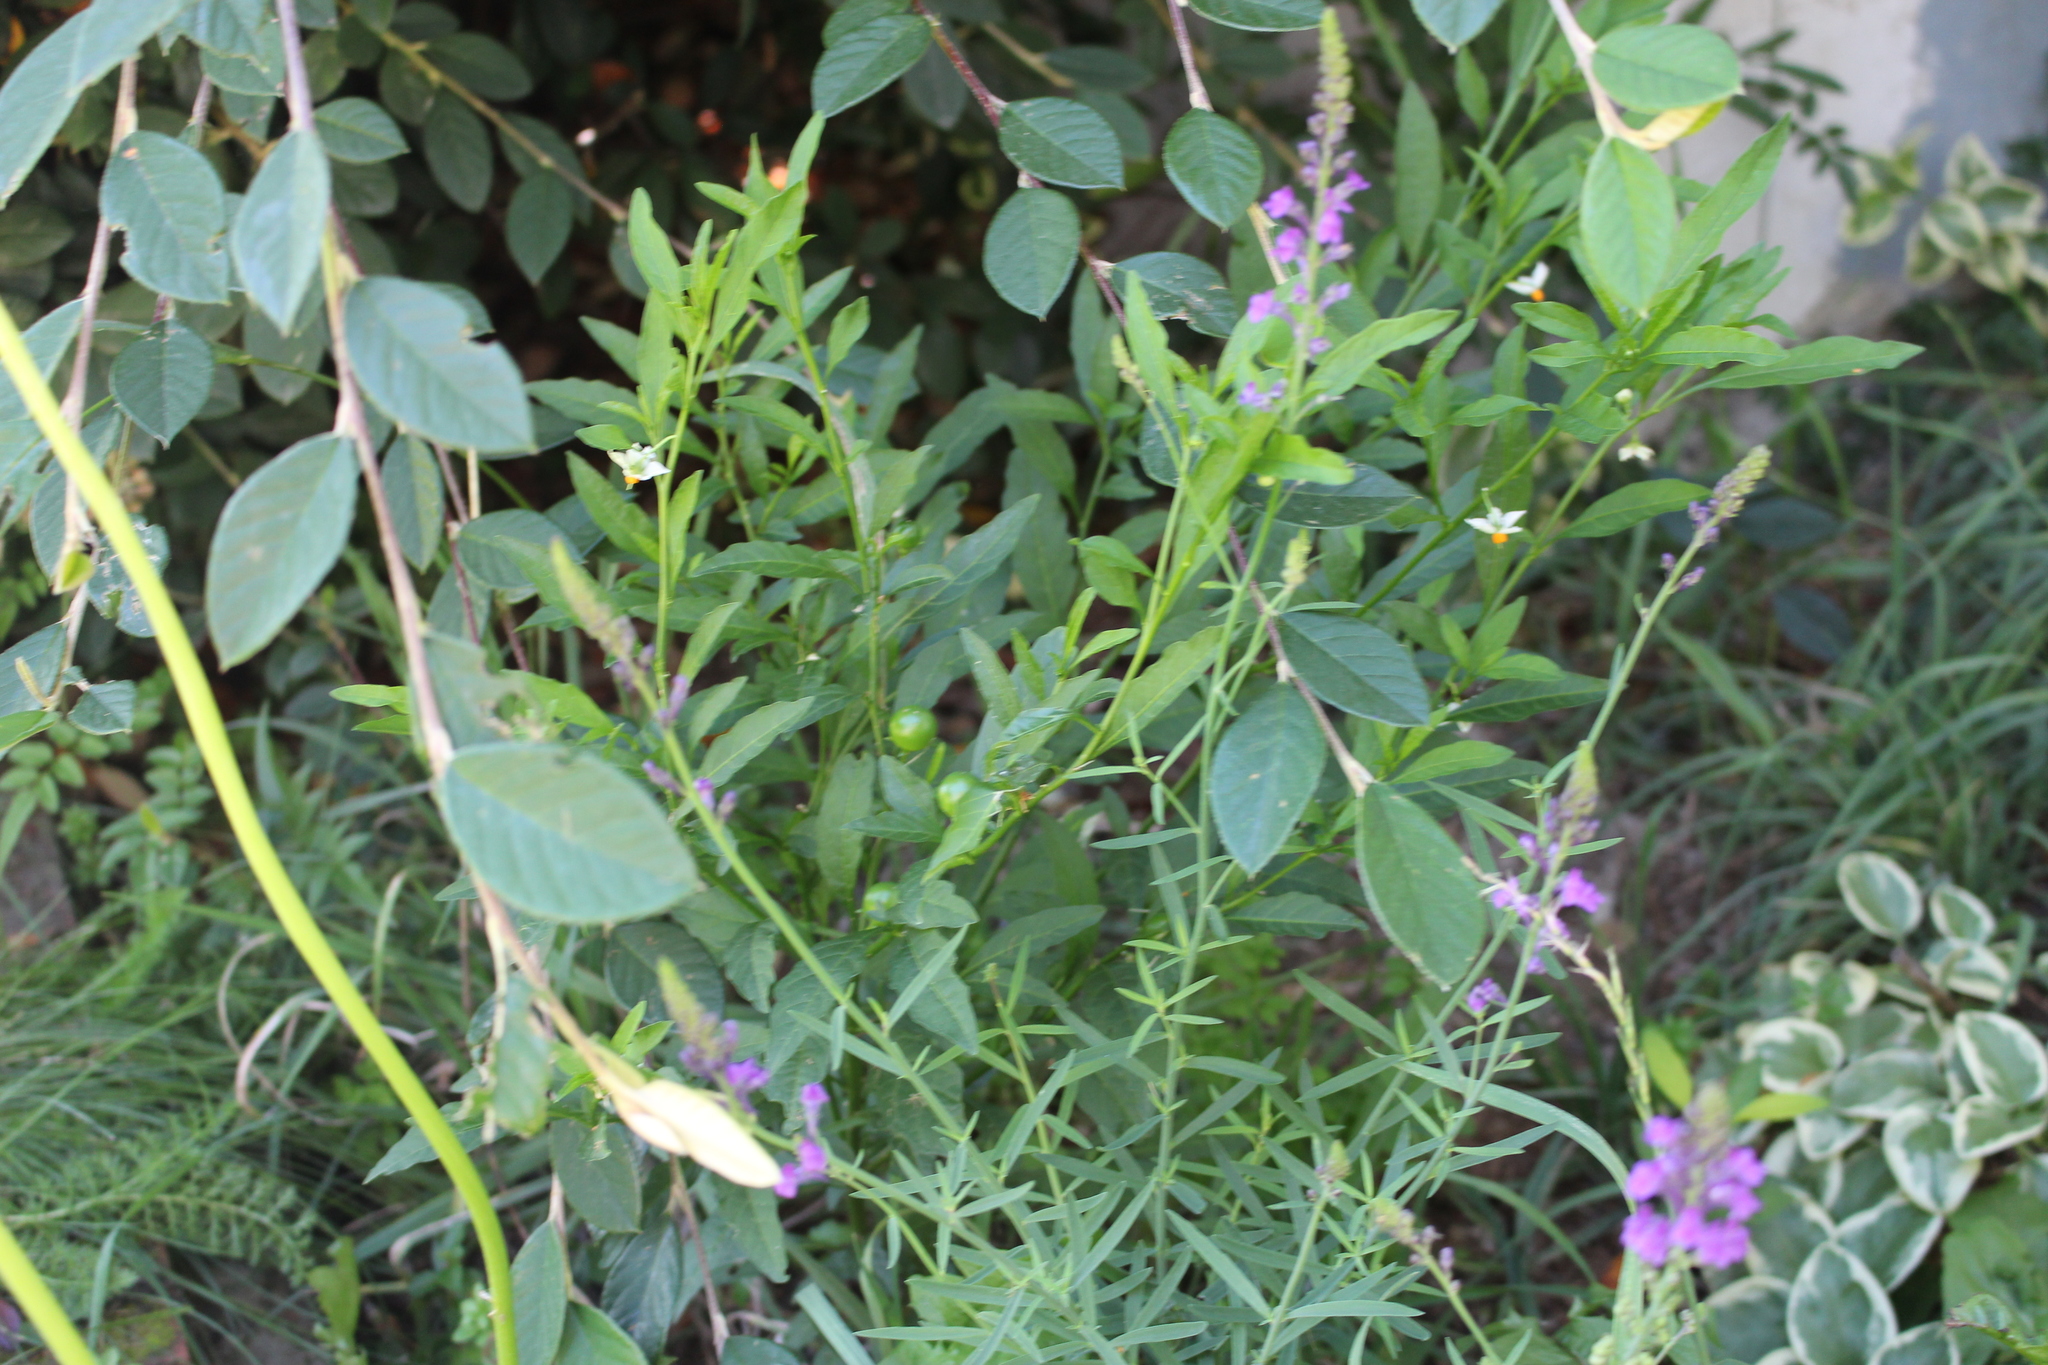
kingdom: Plantae
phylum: Tracheophyta
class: Magnoliopsida
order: Solanales
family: Solanaceae
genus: Solanum
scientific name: Solanum pseudocapsicum
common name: Jerusalem cherry
